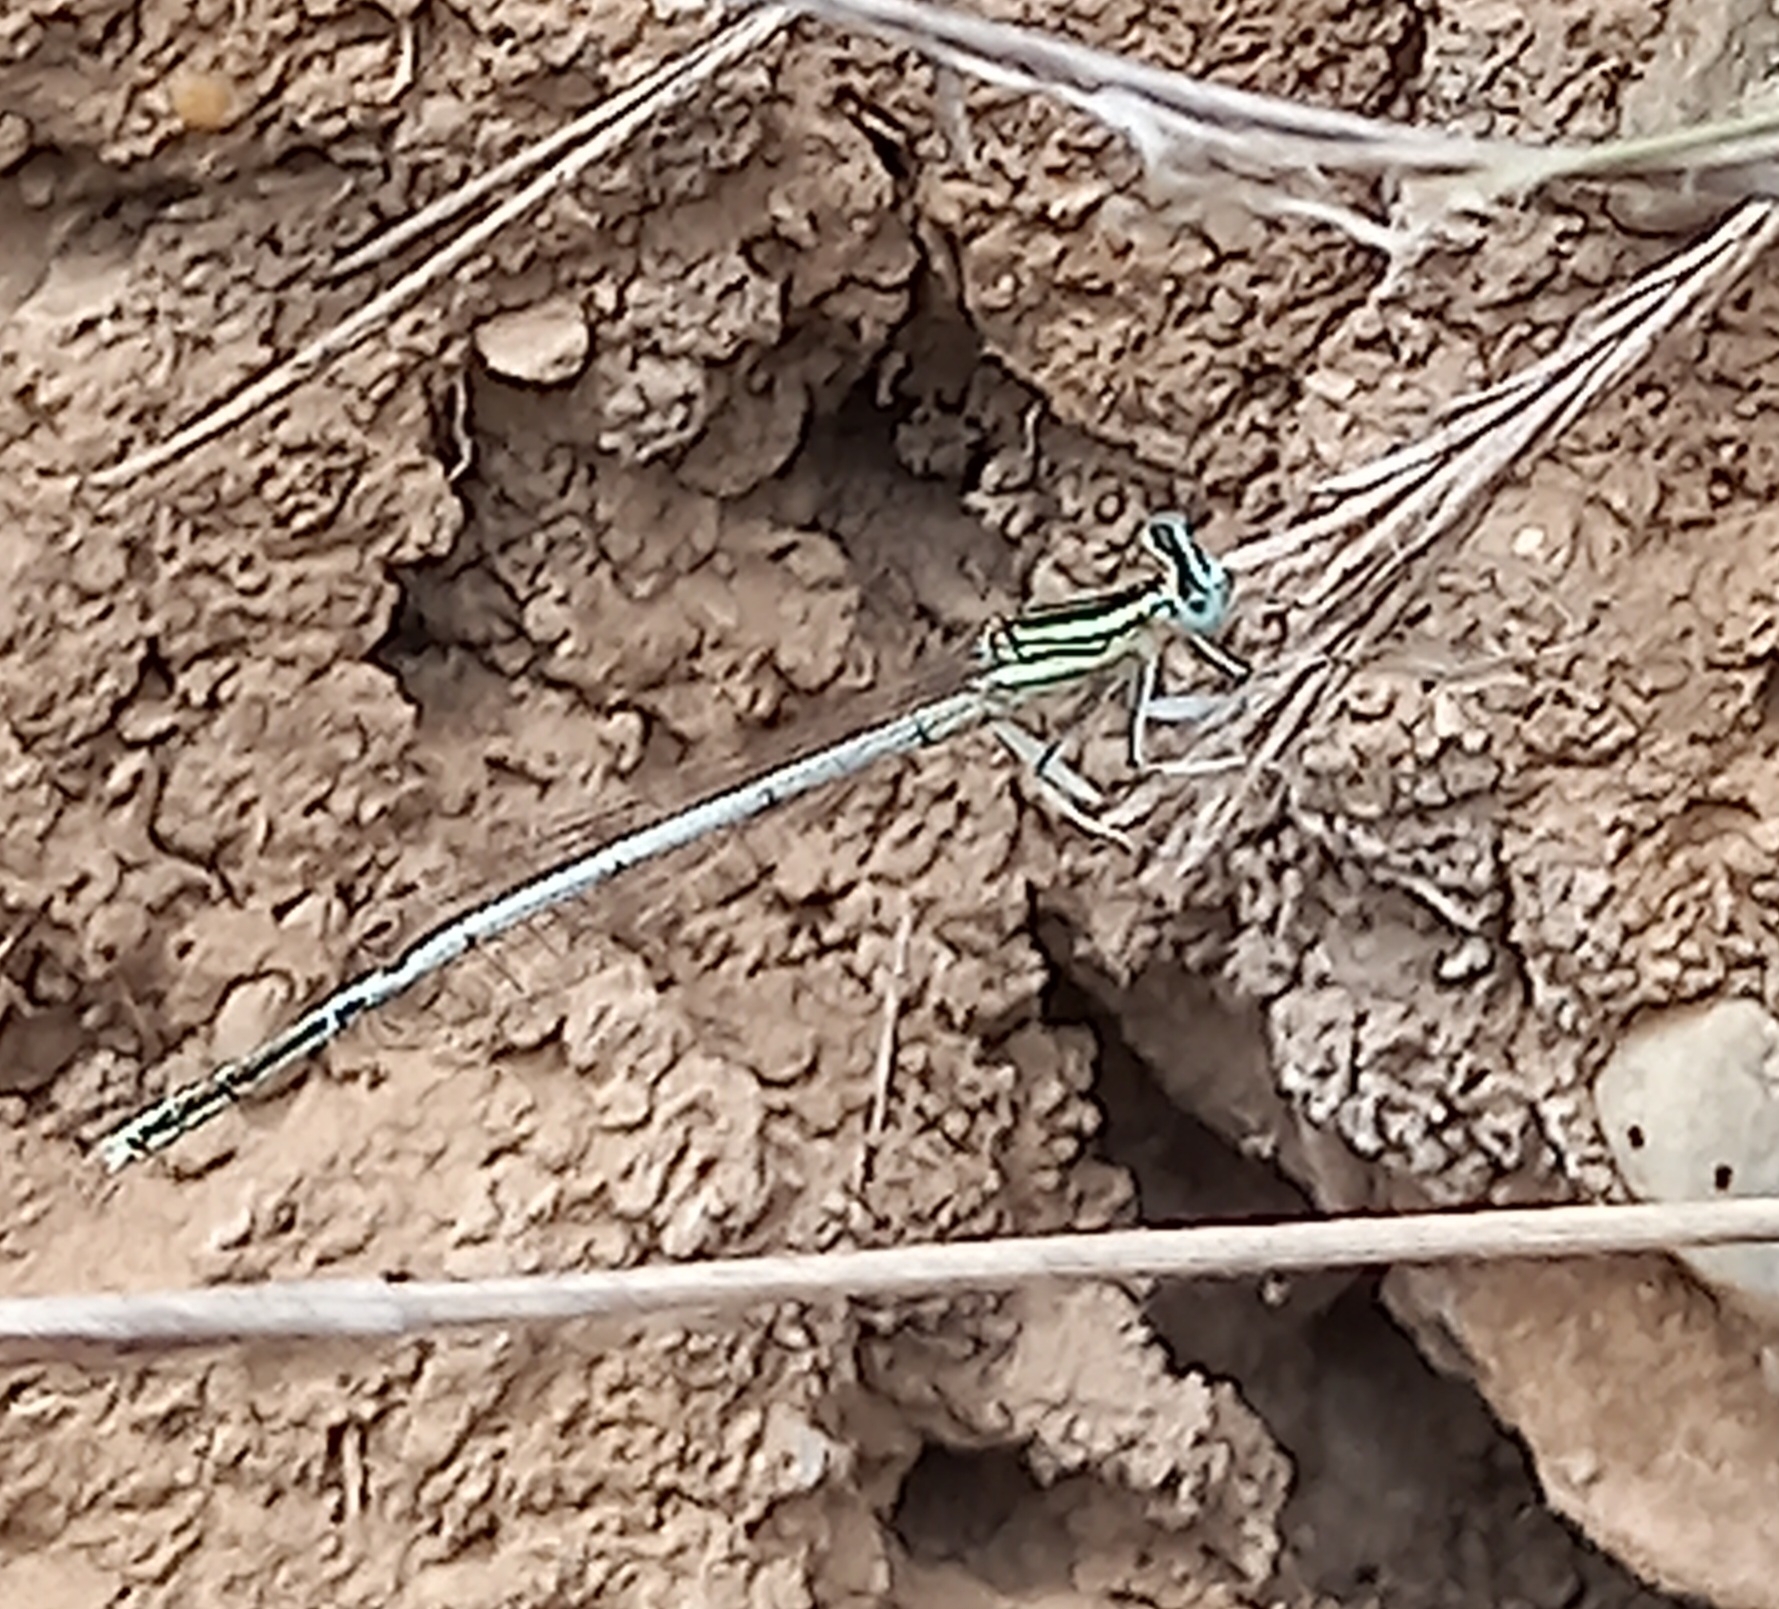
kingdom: Animalia
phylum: Arthropoda
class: Insecta
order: Odonata
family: Platycnemididae
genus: Platycnemis
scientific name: Platycnemis latipes
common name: White featherleg
